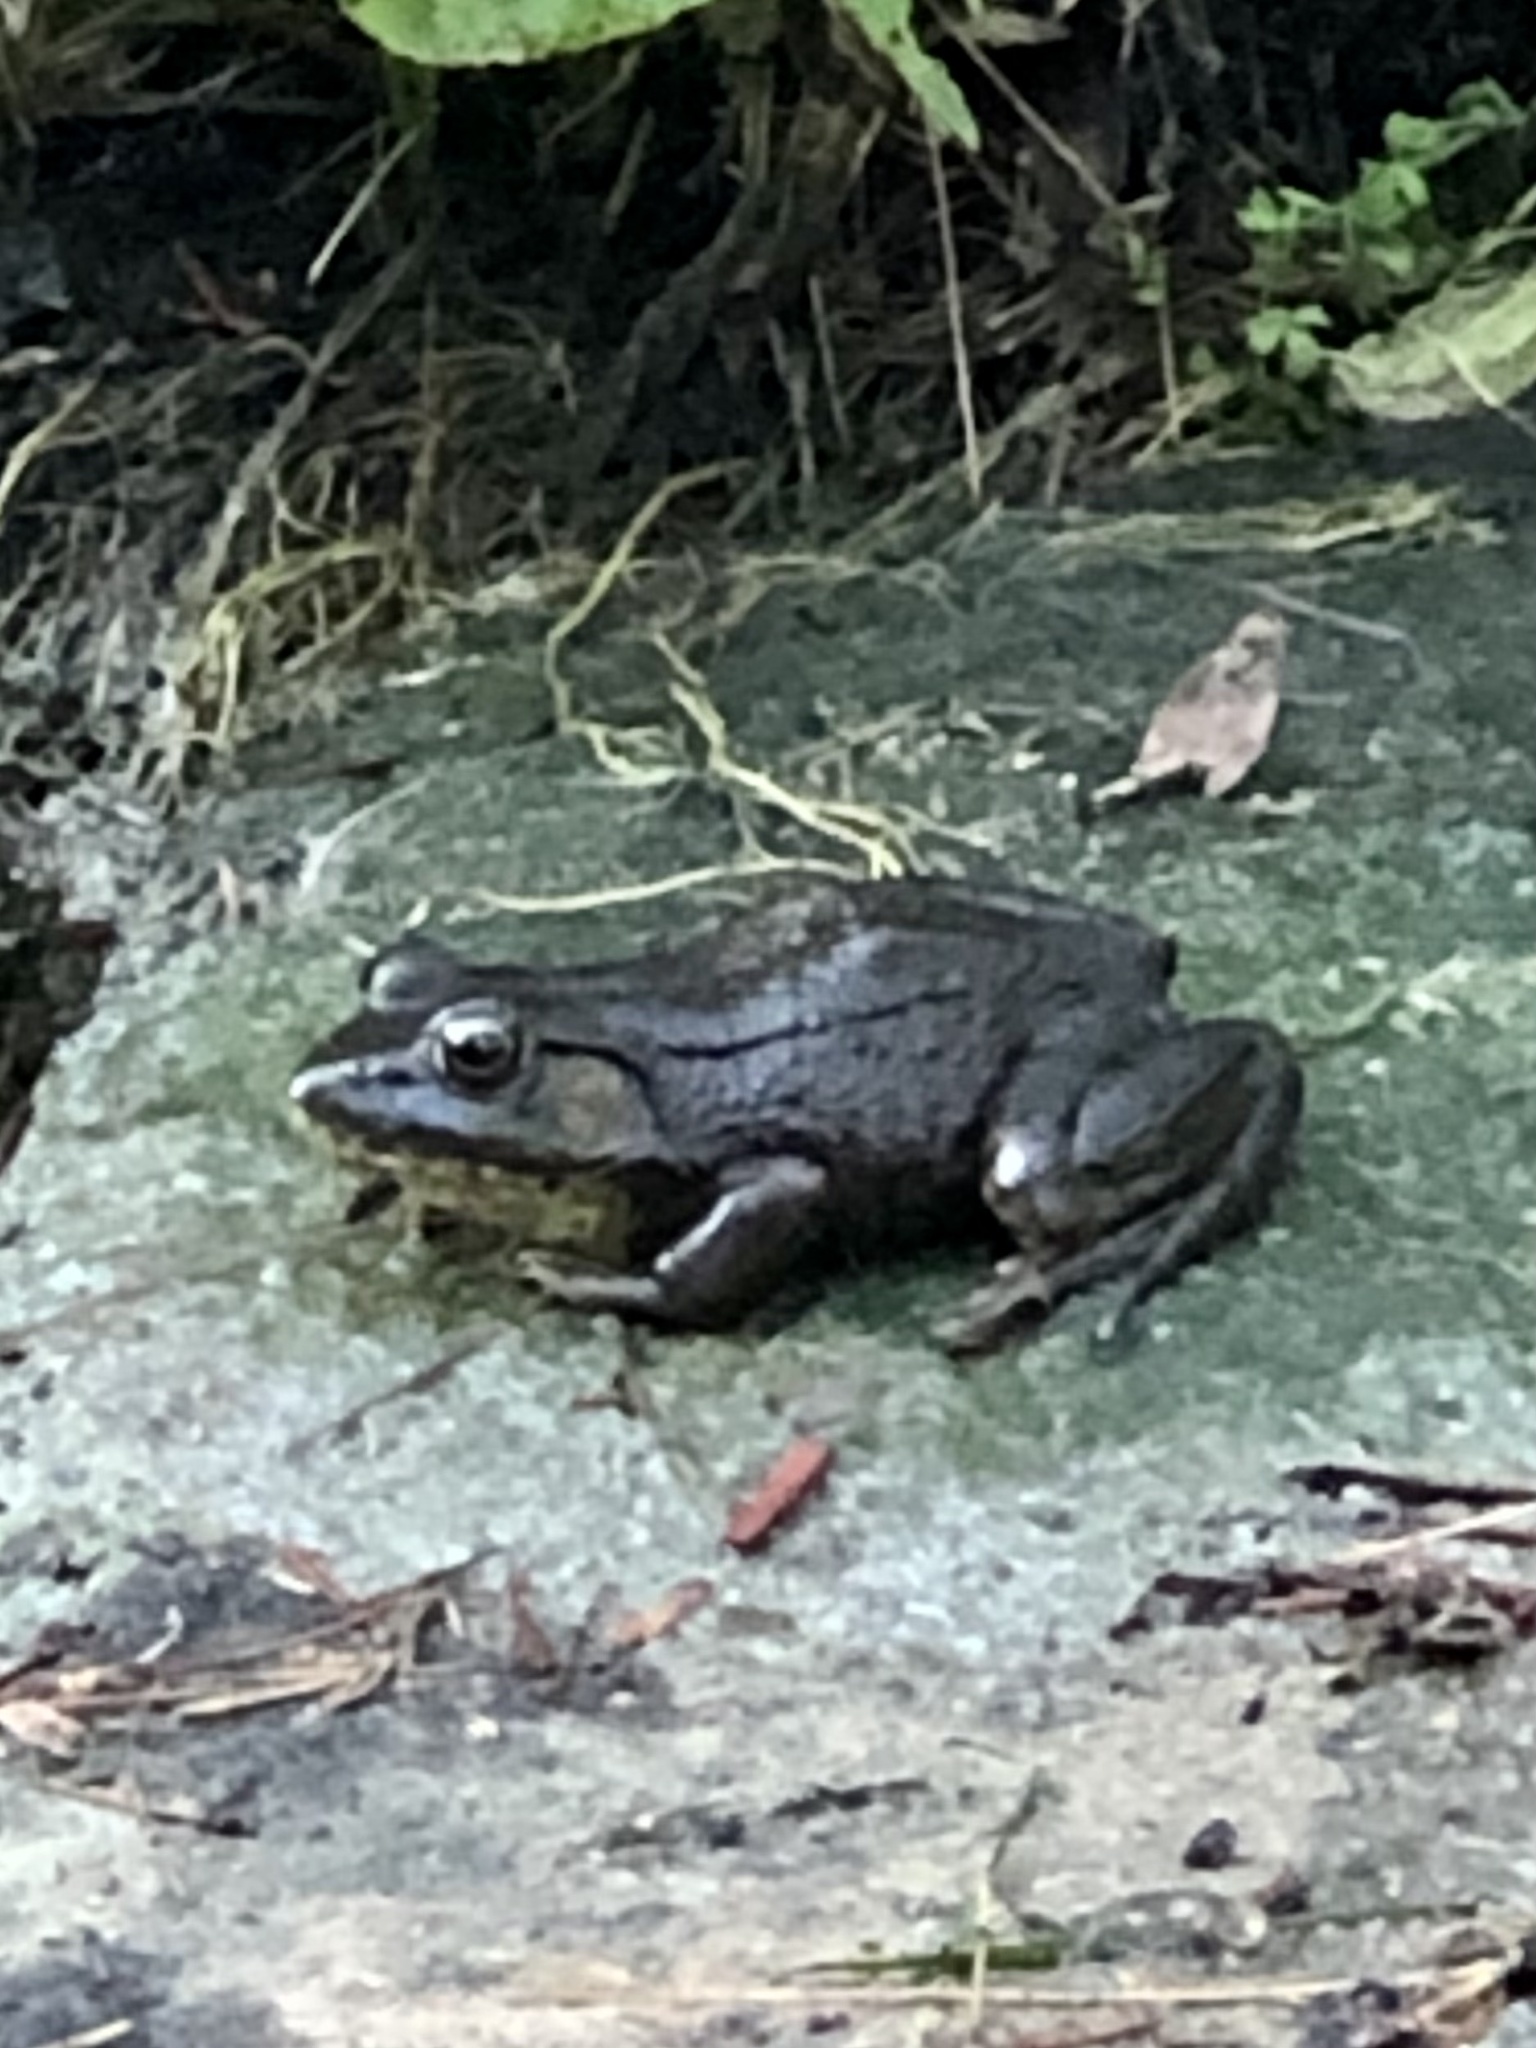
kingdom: Animalia
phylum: Chordata
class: Amphibia
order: Anura
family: Ranidae
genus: Lithobates
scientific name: Lithobates clamitans
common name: Green frog
